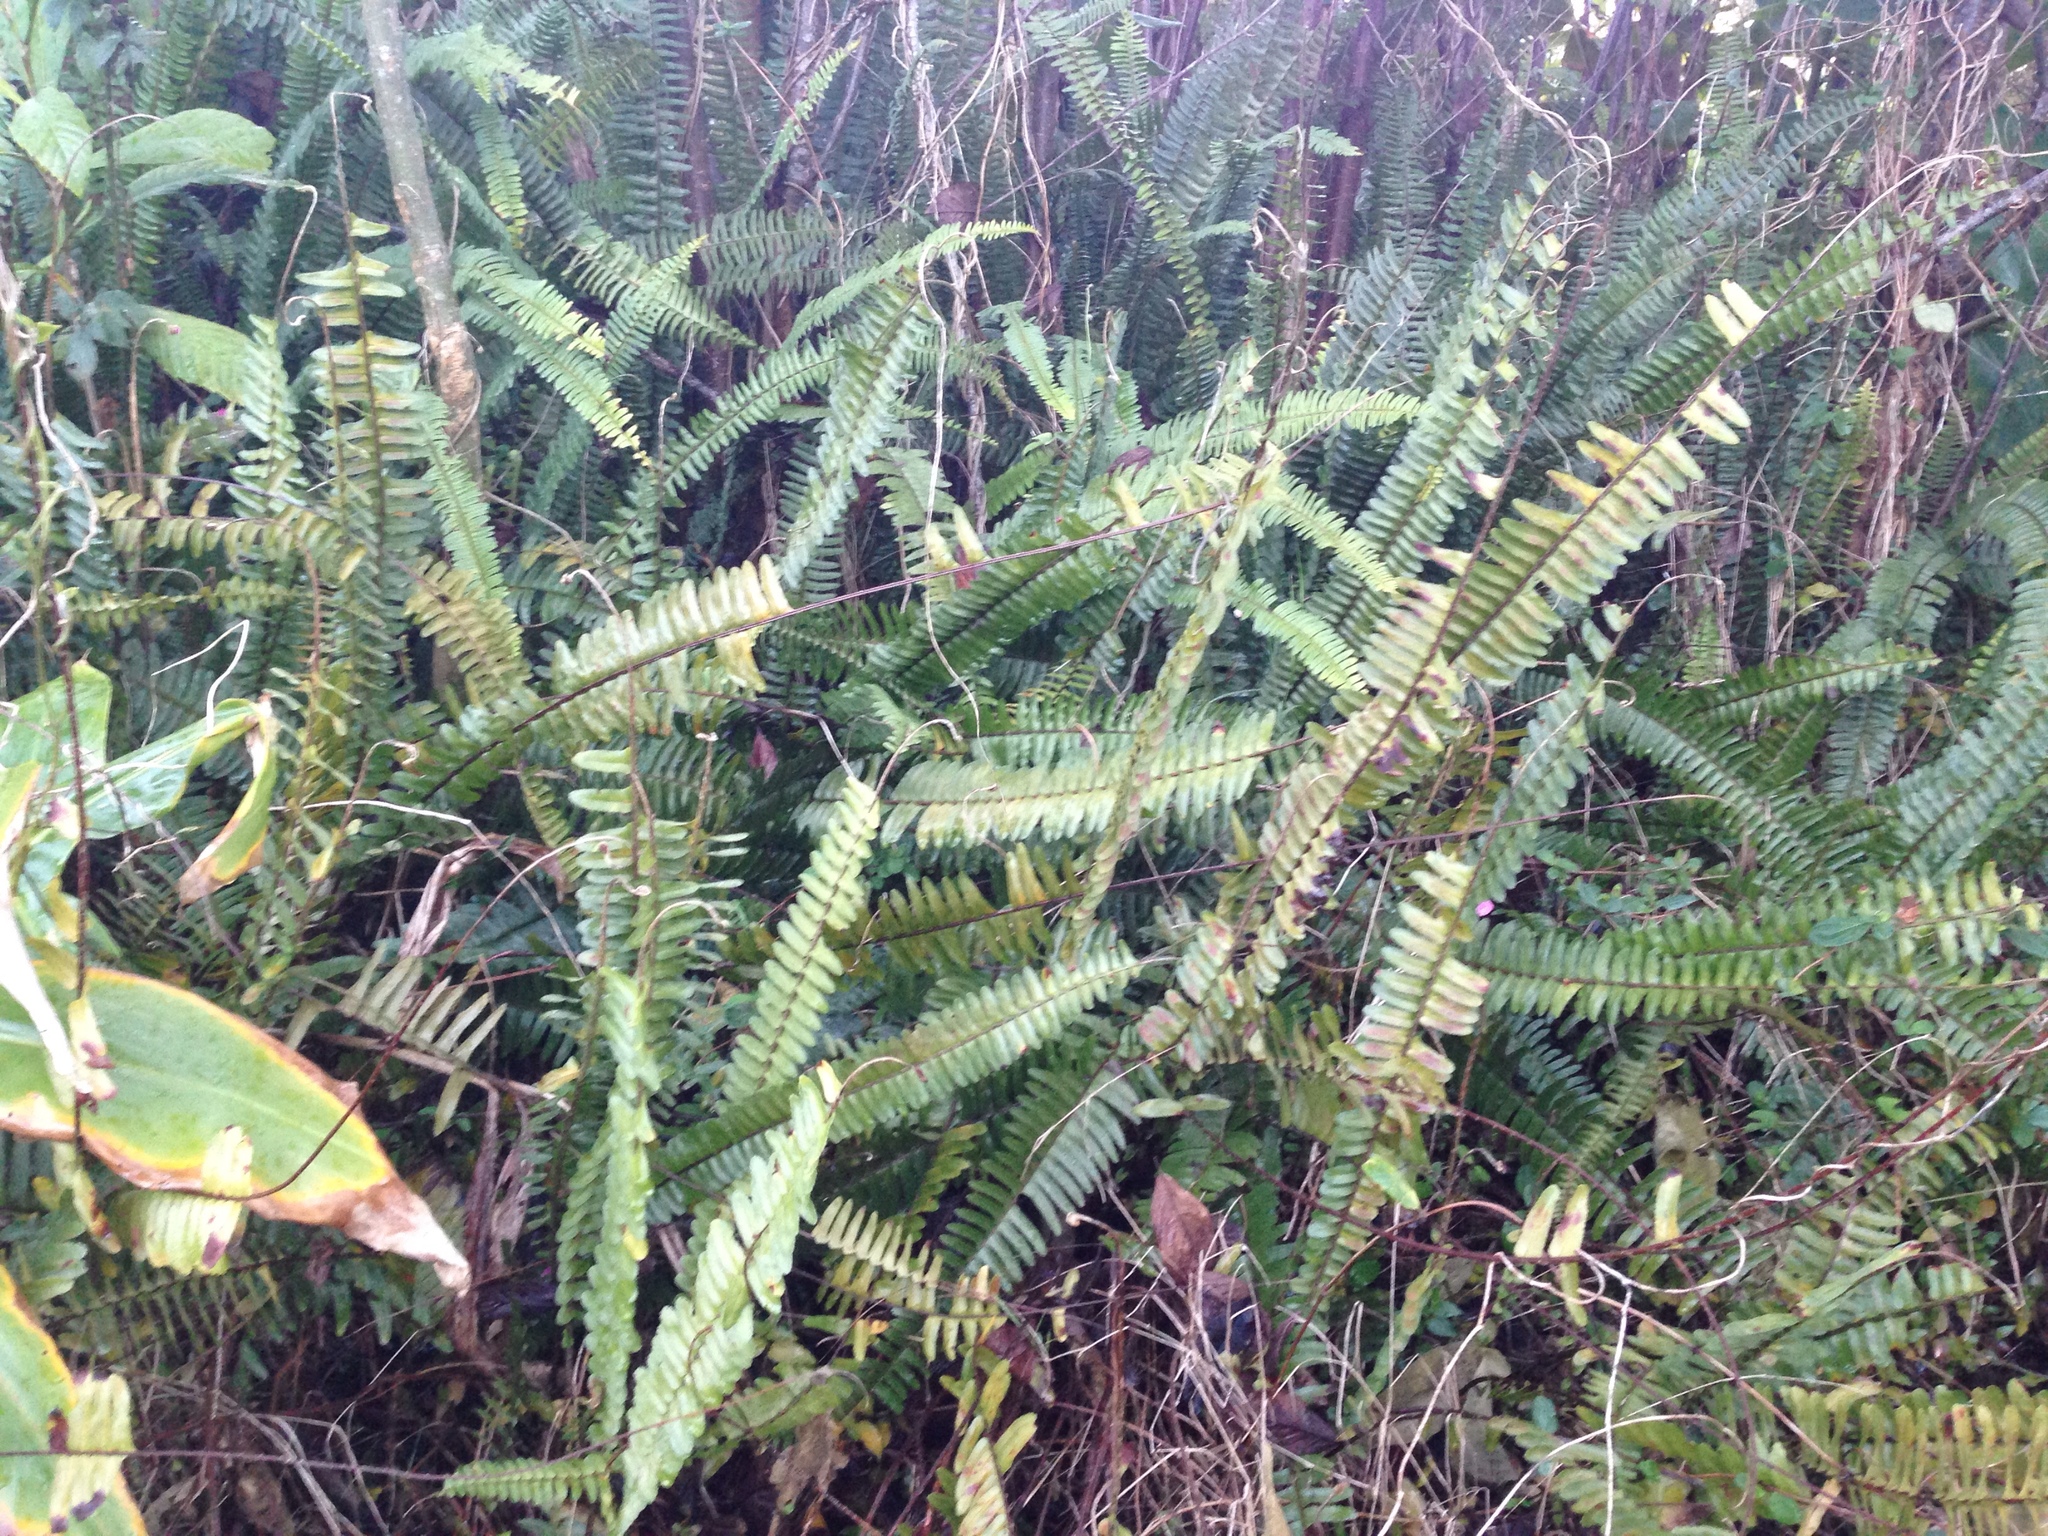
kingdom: Plantae
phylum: Tracheophyta
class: Polypodiopsida
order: Polypodiales
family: Nephrolepidaceae
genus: Nephrolepis
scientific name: Nephrolepis cordifolia
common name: Narrow swordfern
